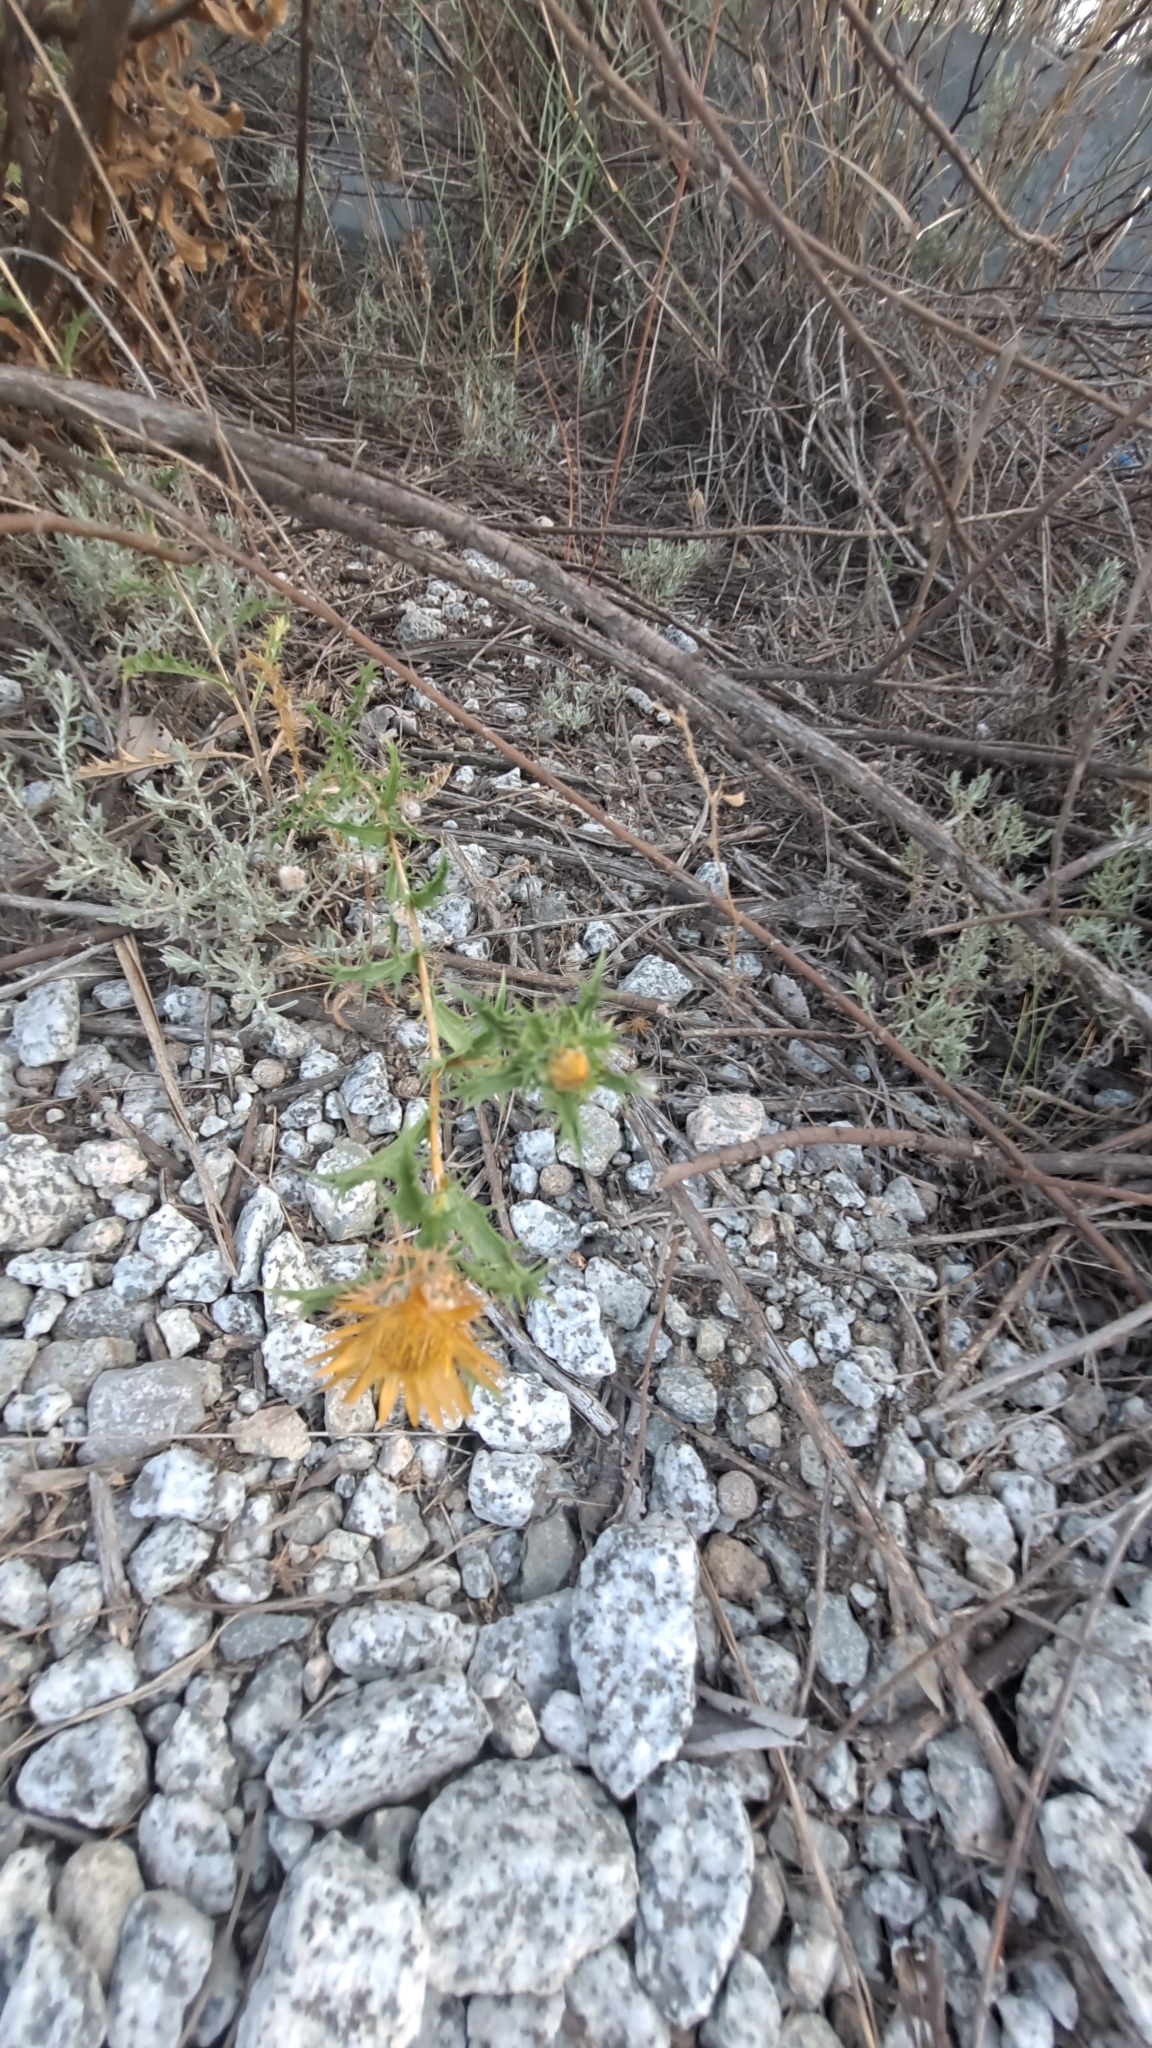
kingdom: Plantae
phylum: Tracheophyta
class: Magnoliopsida
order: Asterales
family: Asteraceae
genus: Carlina
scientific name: Carlina hispanica
